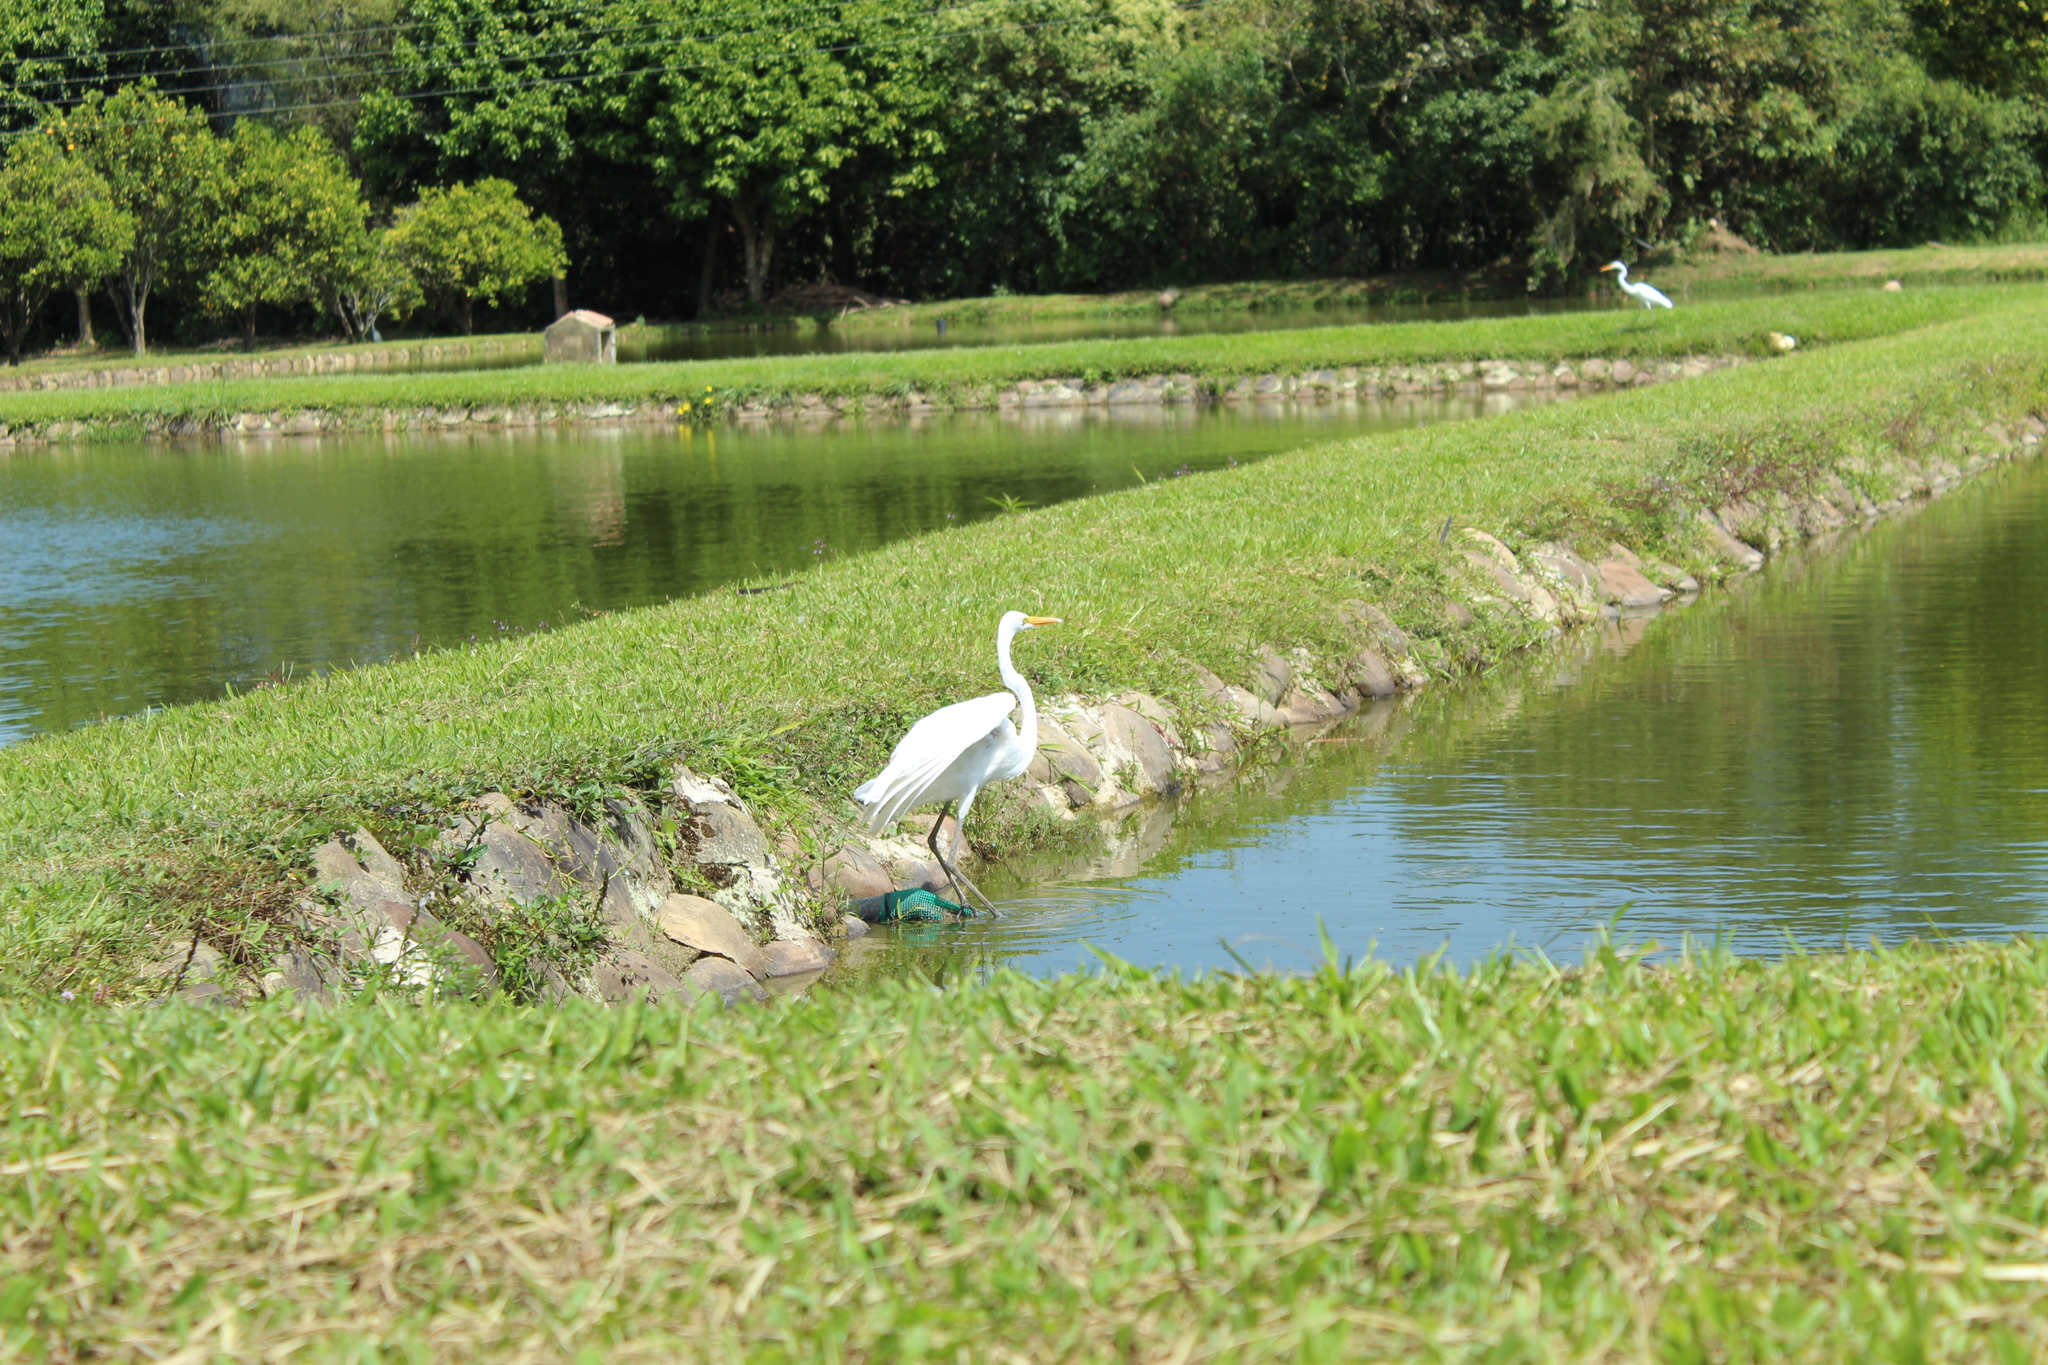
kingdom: Animalia
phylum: Chordata
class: Aves
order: Pelecaniformes
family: Ardeidae
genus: Ardea
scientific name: Ardea alba
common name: Great egret
